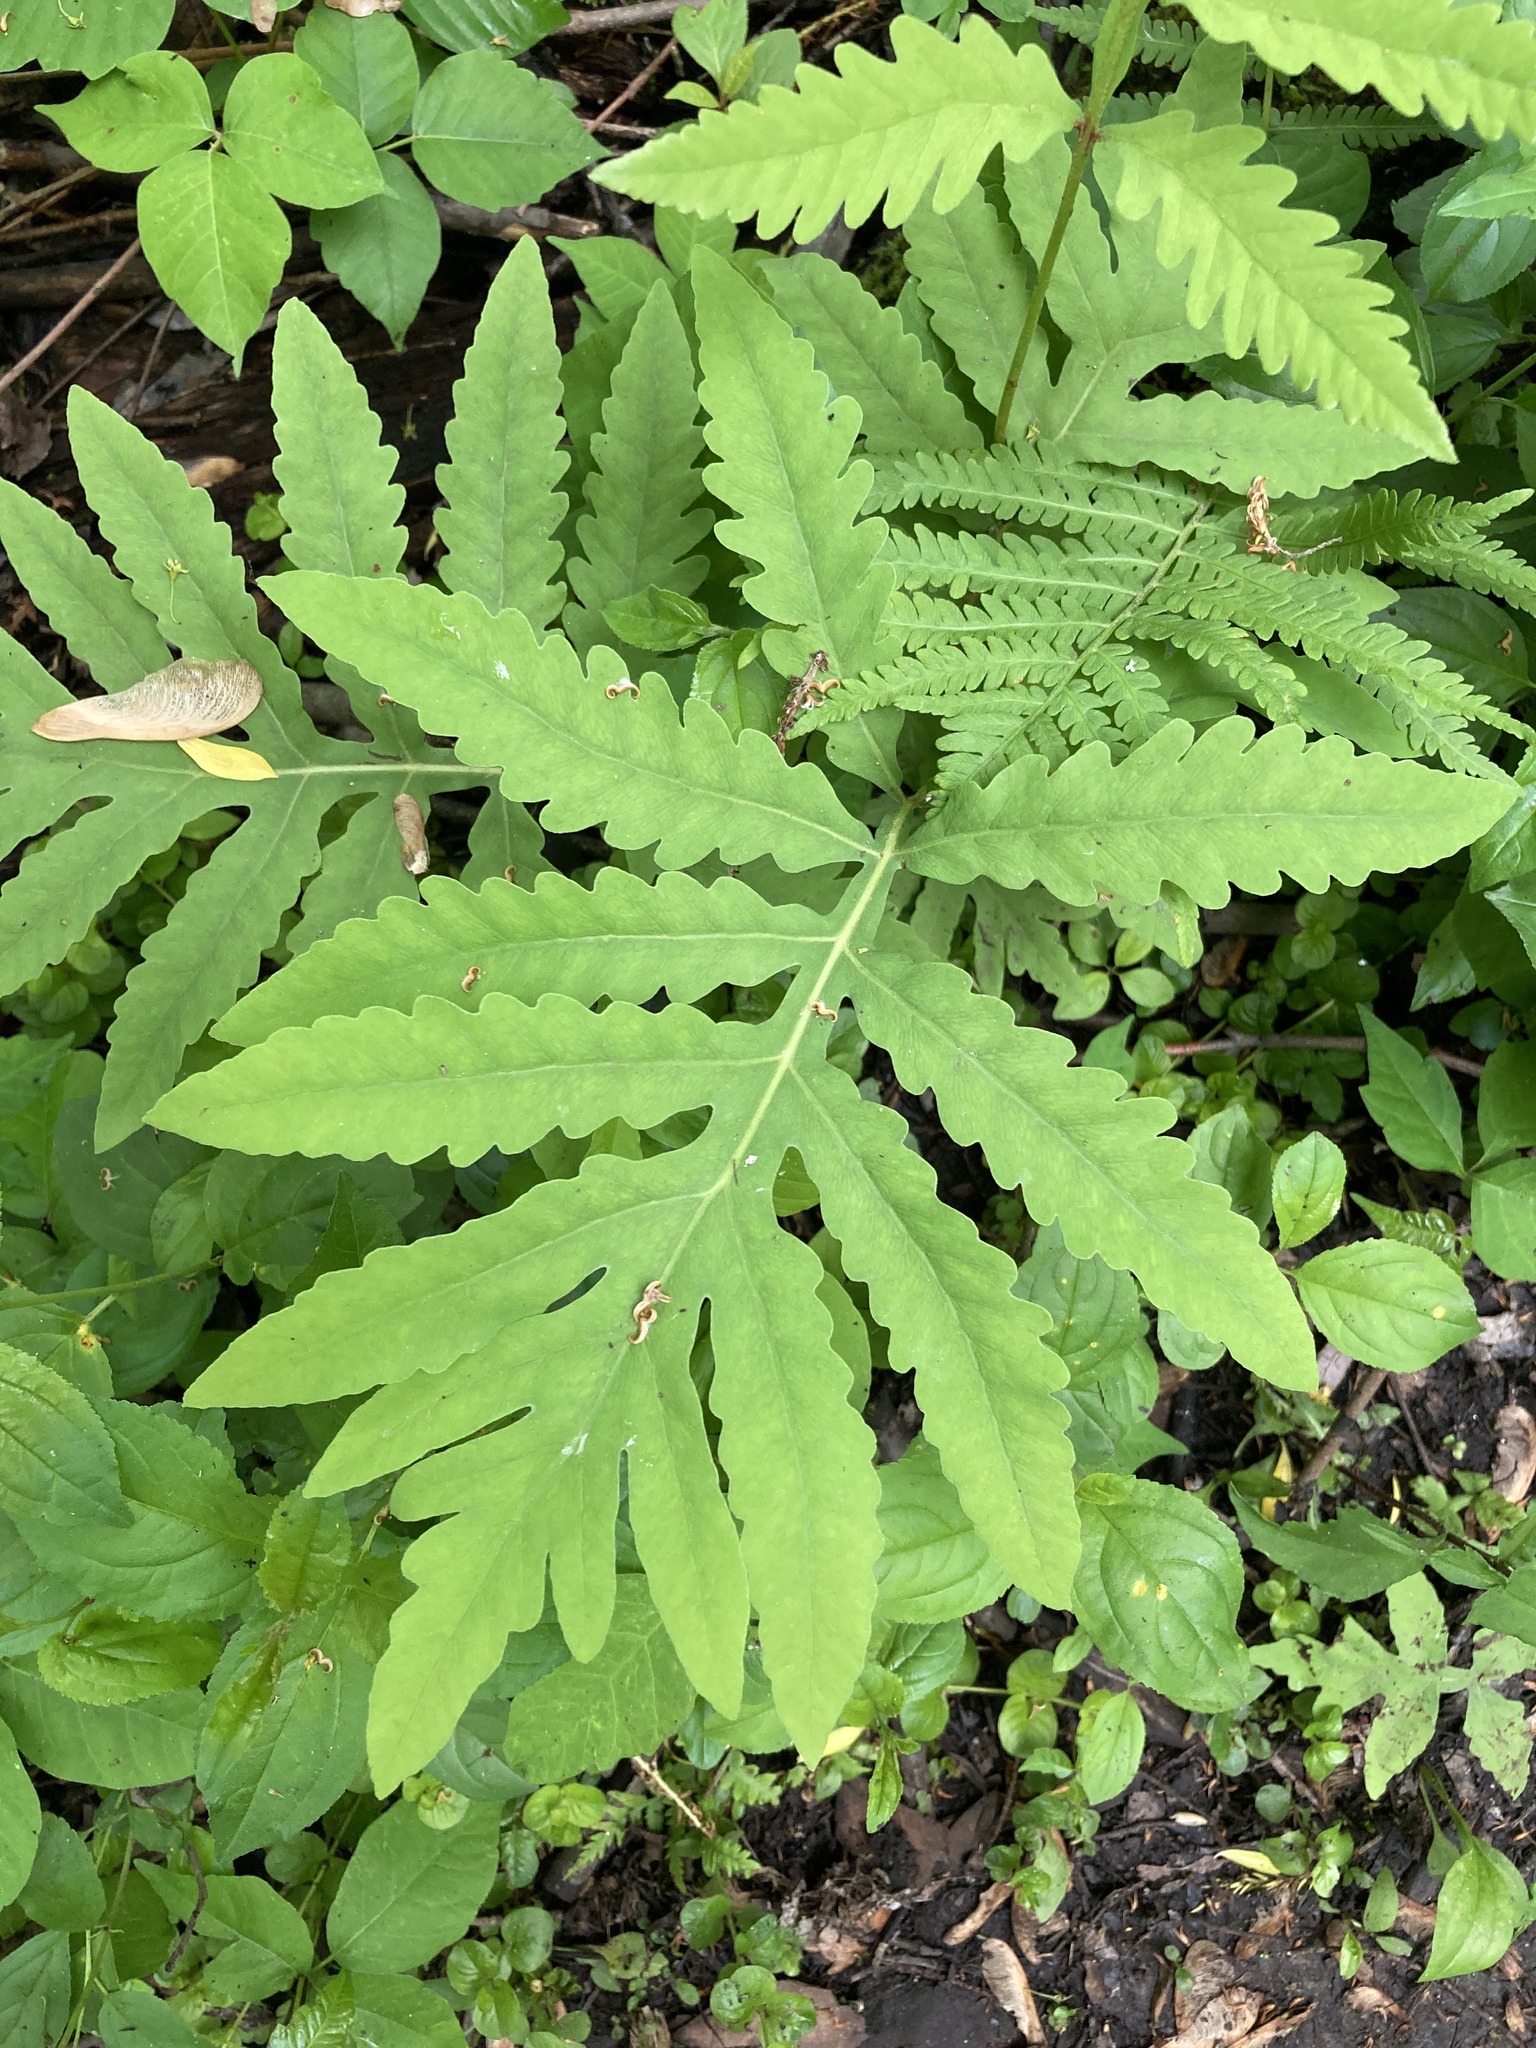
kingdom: Plantae
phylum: Tracheophyta
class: Polypodiopsida
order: Polypodiales
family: Onocleaceae
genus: Onoclea
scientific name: Onoclea sensibilis
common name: Sensitive fern
